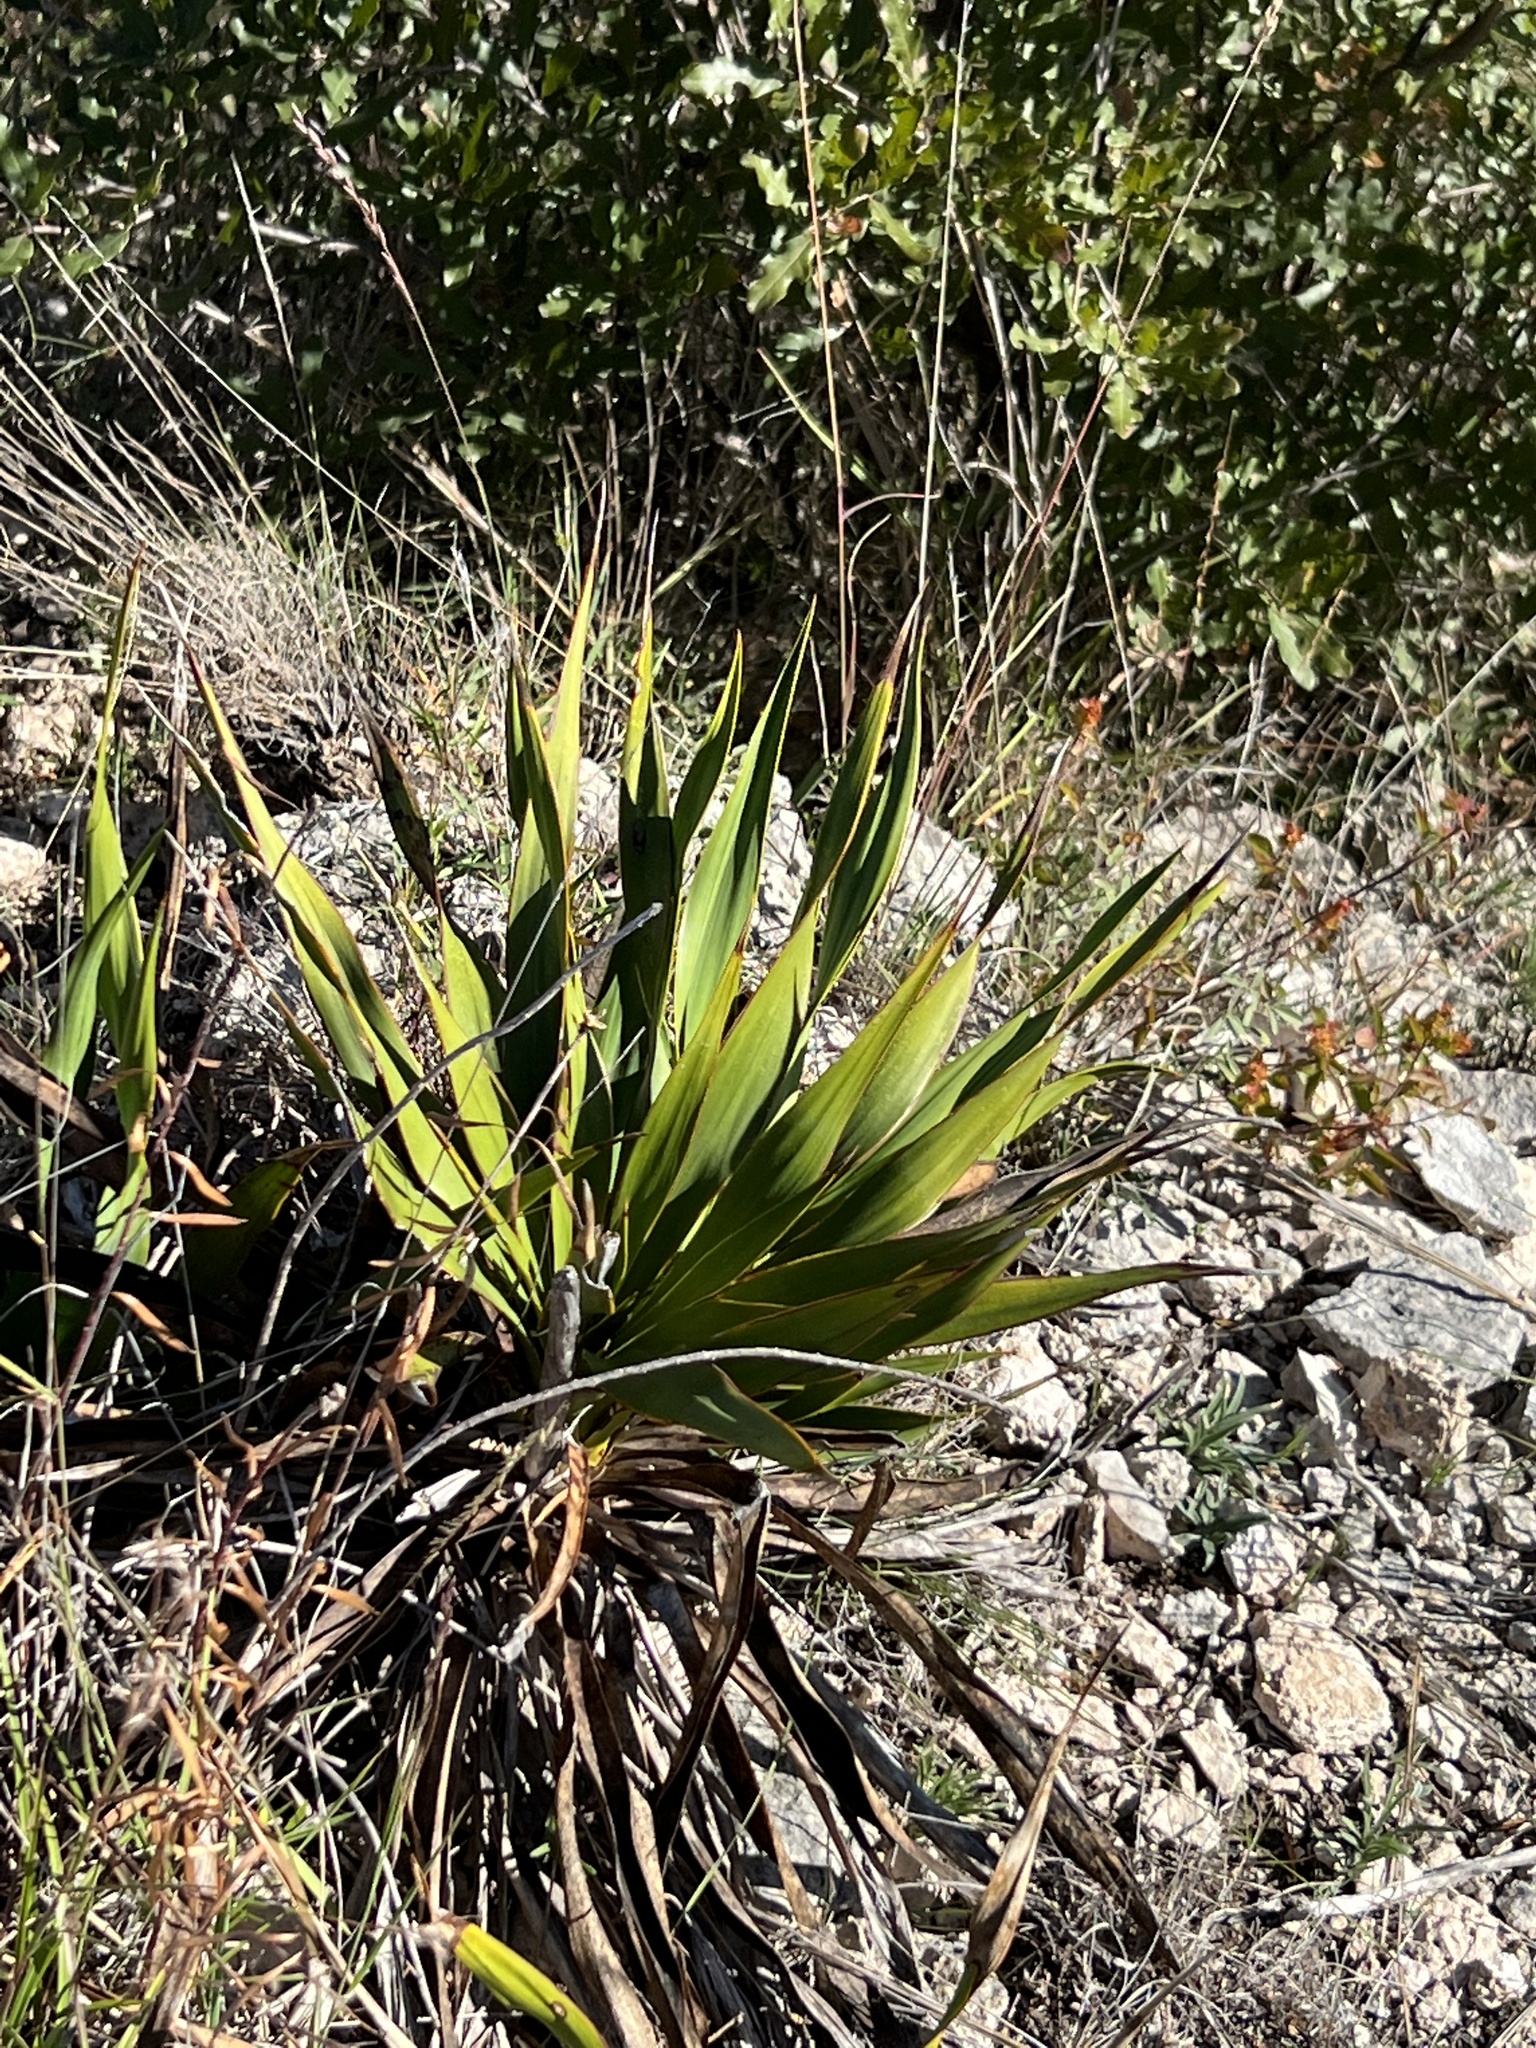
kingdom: Plantae
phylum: Tracheophyta
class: Liliopsida
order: Asparagales
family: Asparagaceae
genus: Yucca
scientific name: Yucca rupicola
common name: Twisted-leaf spanish-dagger
